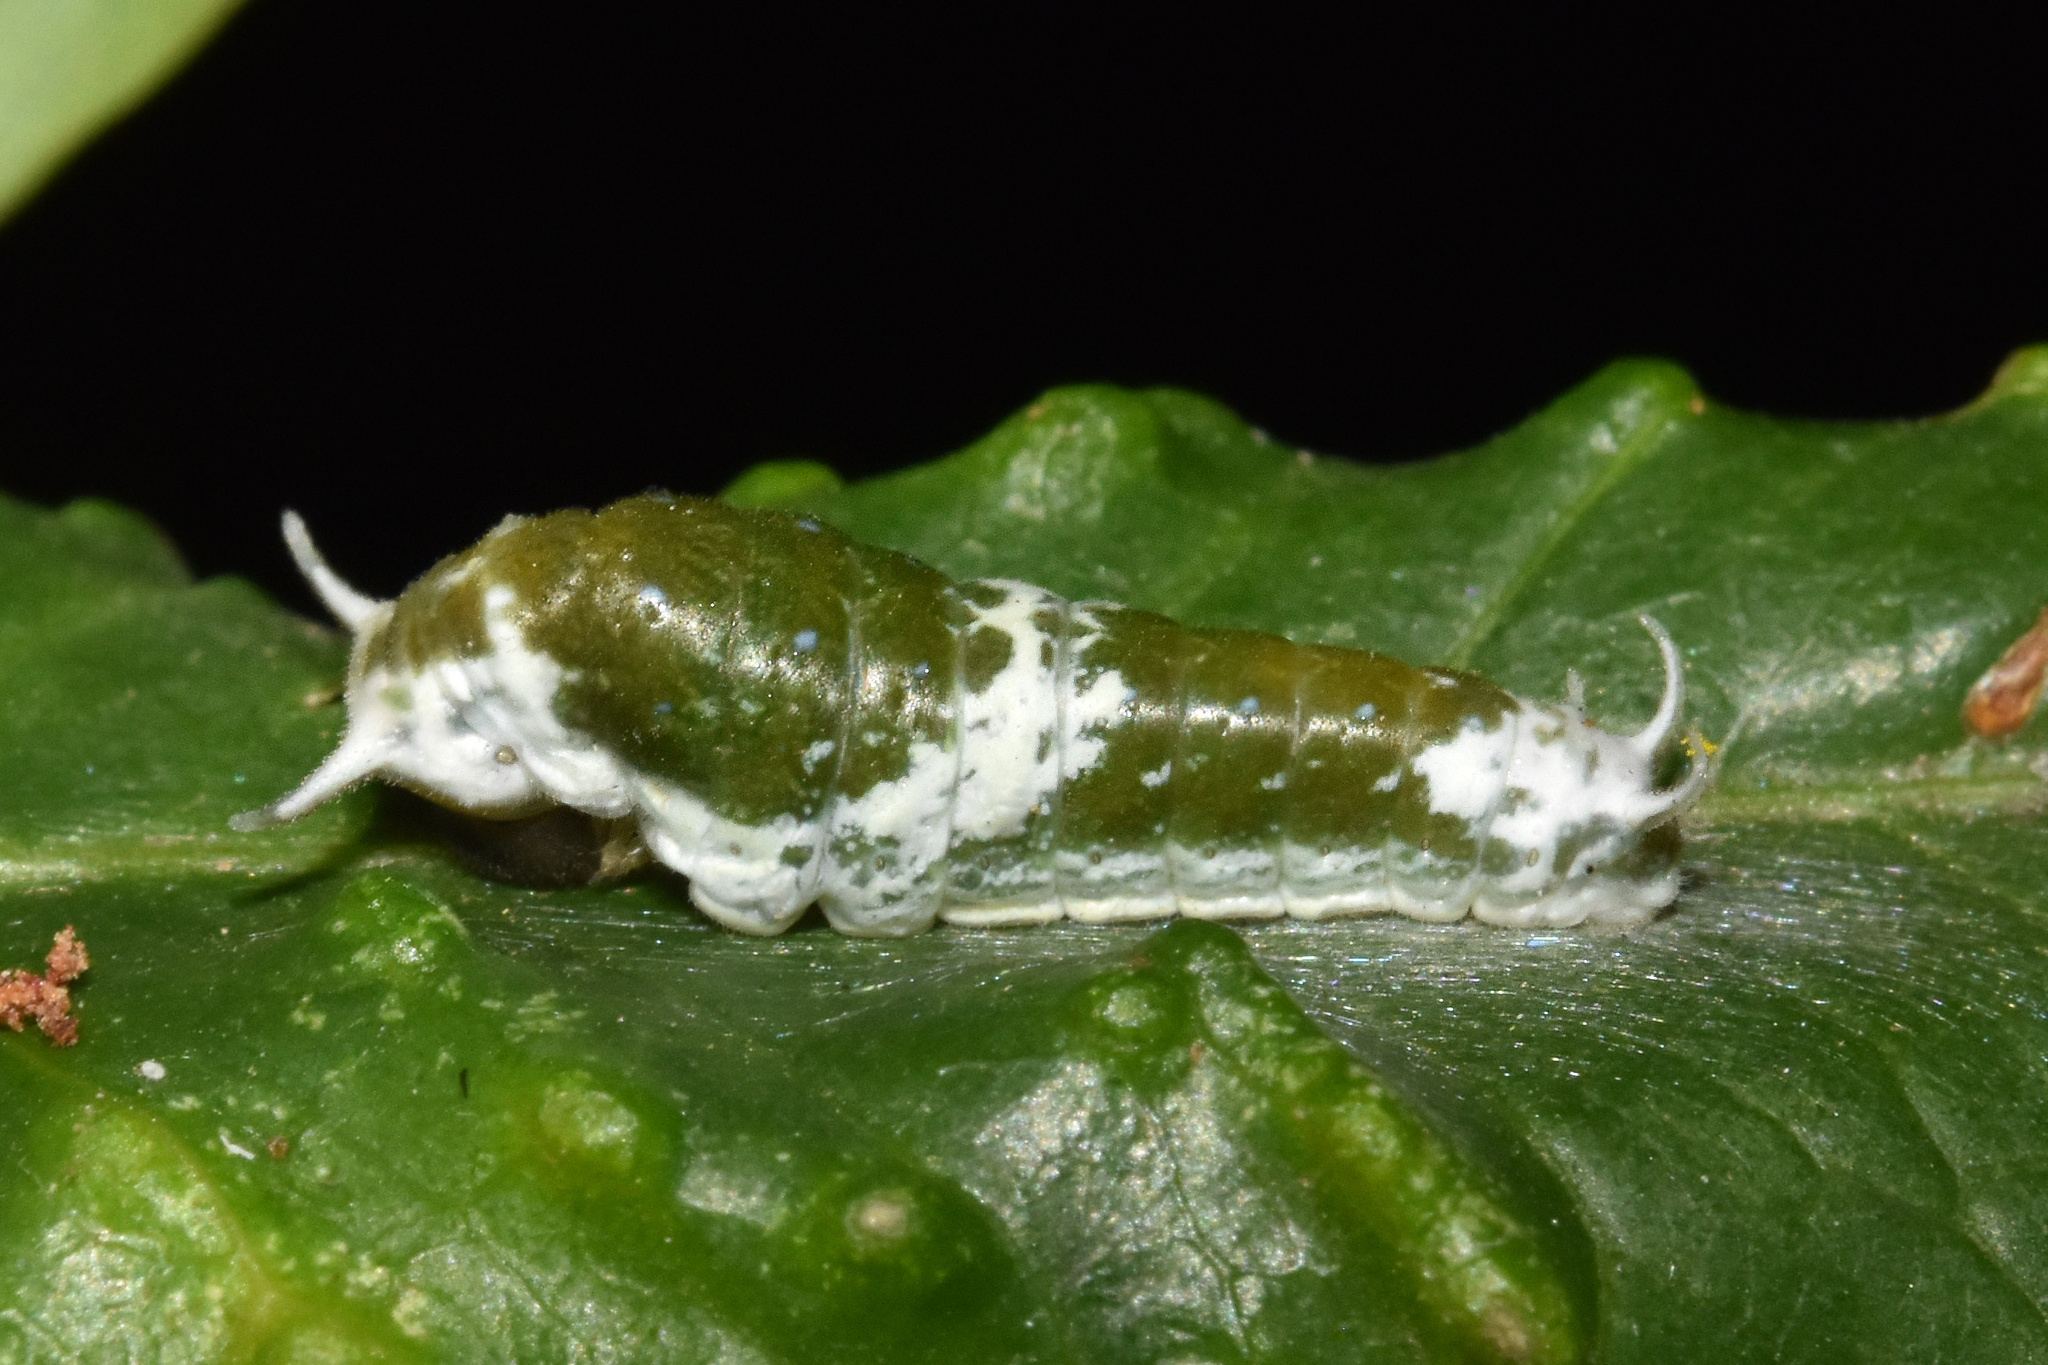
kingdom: Animalia
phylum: Arthropoda
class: Insecta
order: Lepidoptera
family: Papilionidae
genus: Papilio
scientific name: Papilio dardanus
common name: Flying handkerchief
